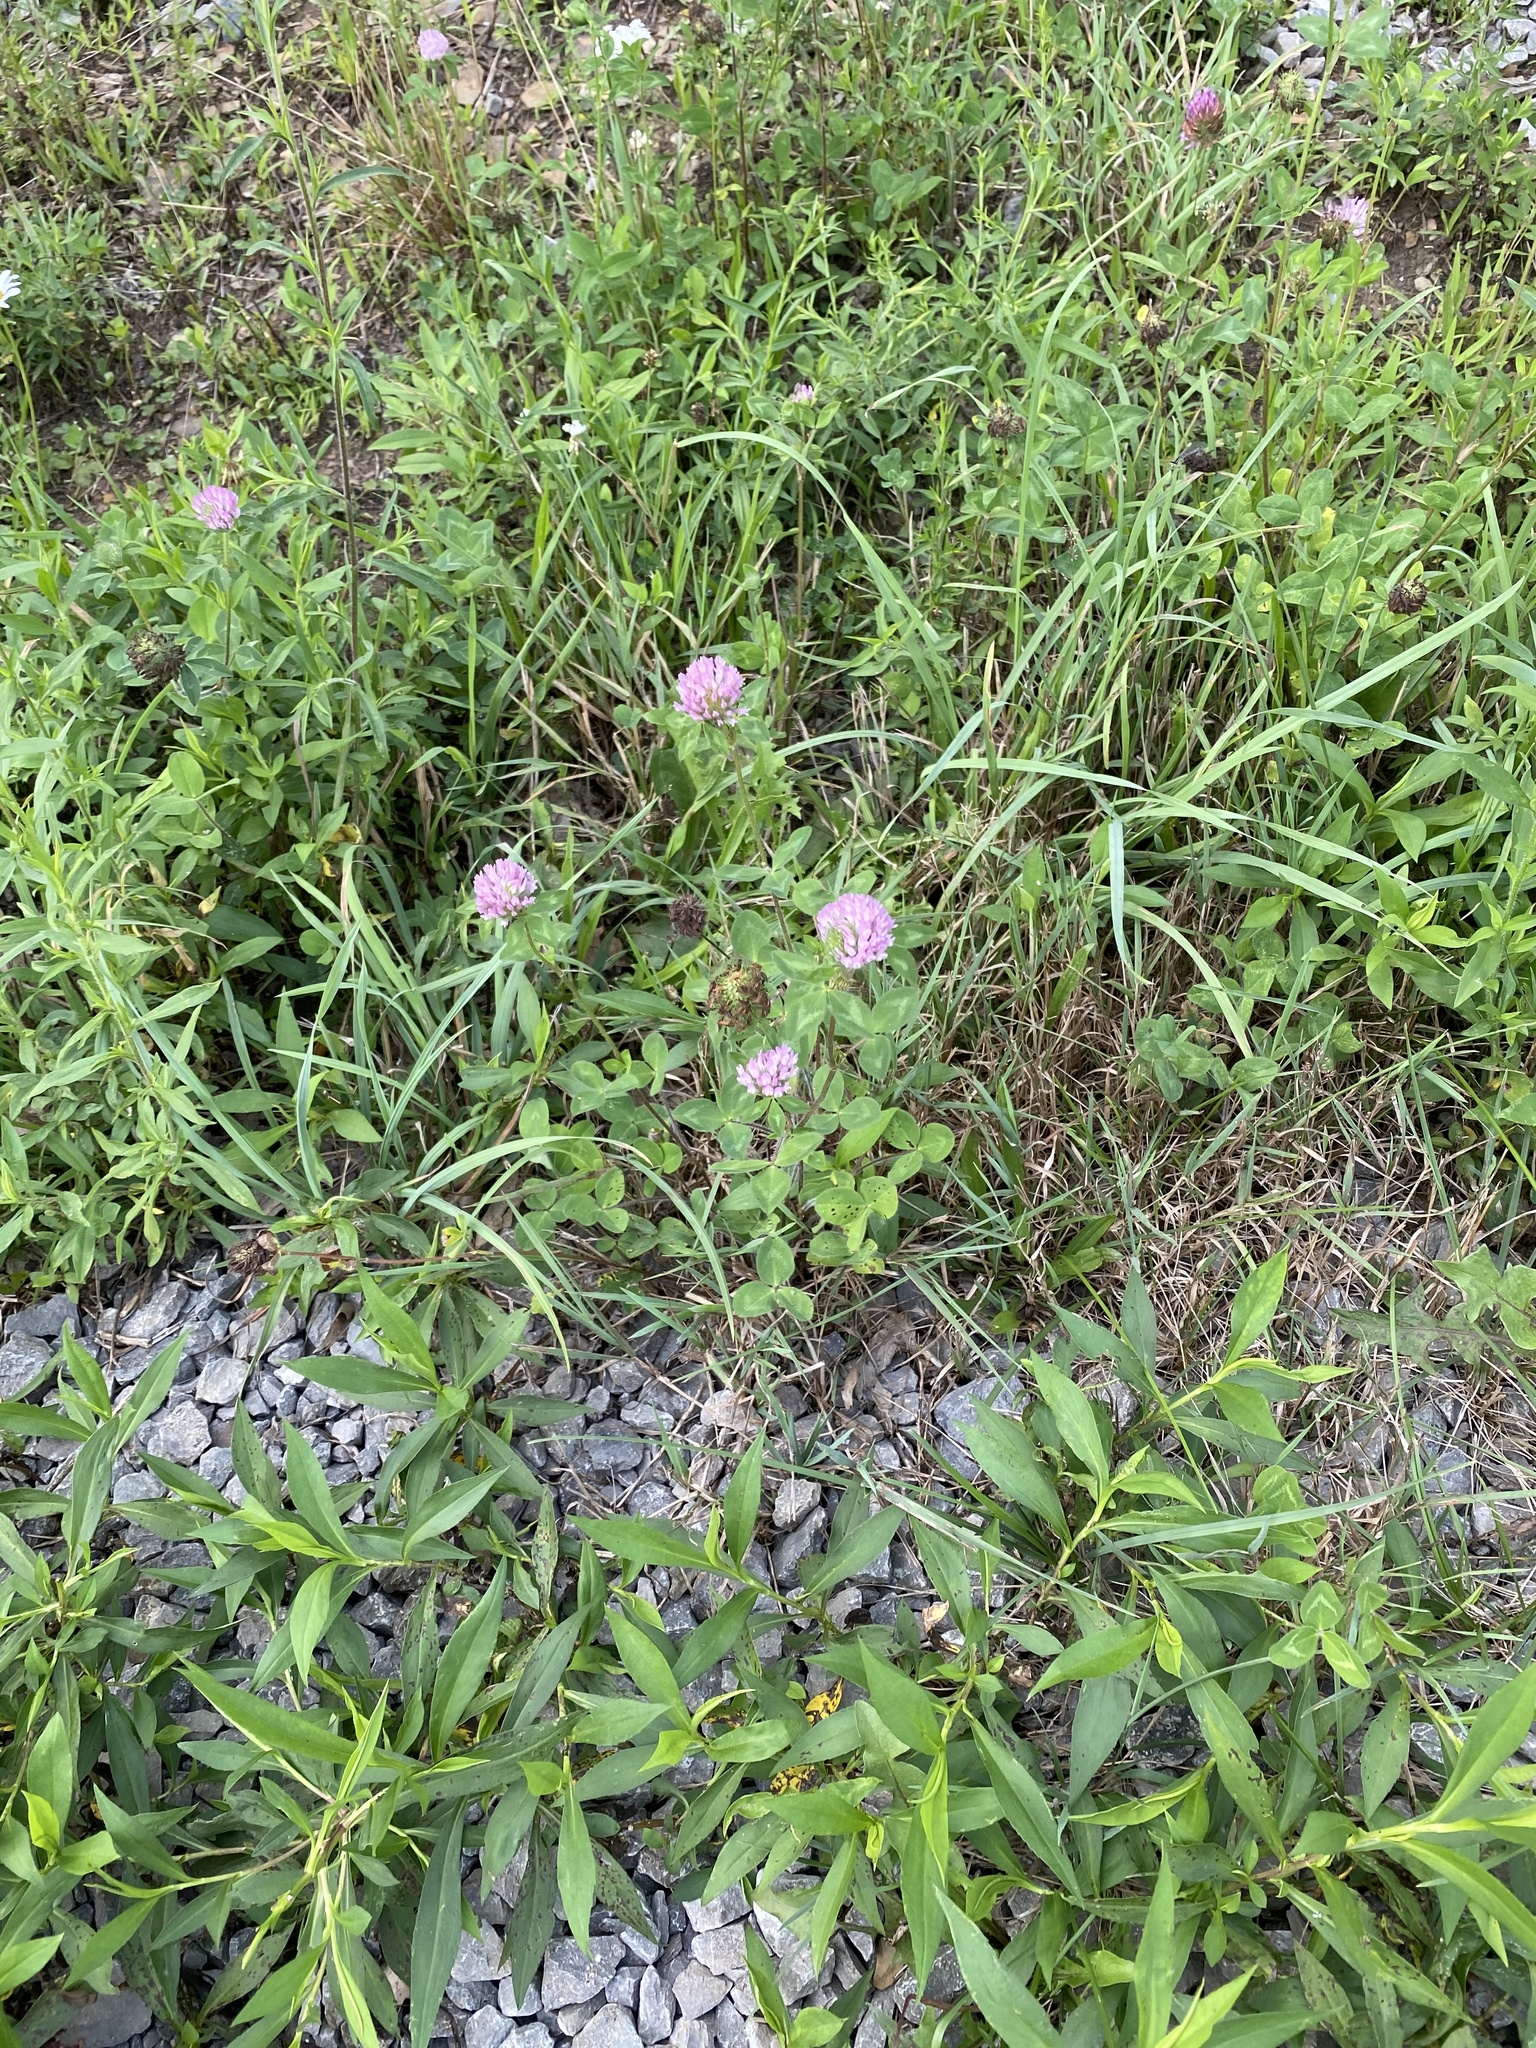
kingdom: Plantae
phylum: Tracheophyta
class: Magnoliopsida
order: Fabales
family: Fabaceae
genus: Trifolium
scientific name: Trifolium pratense
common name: Red clover
